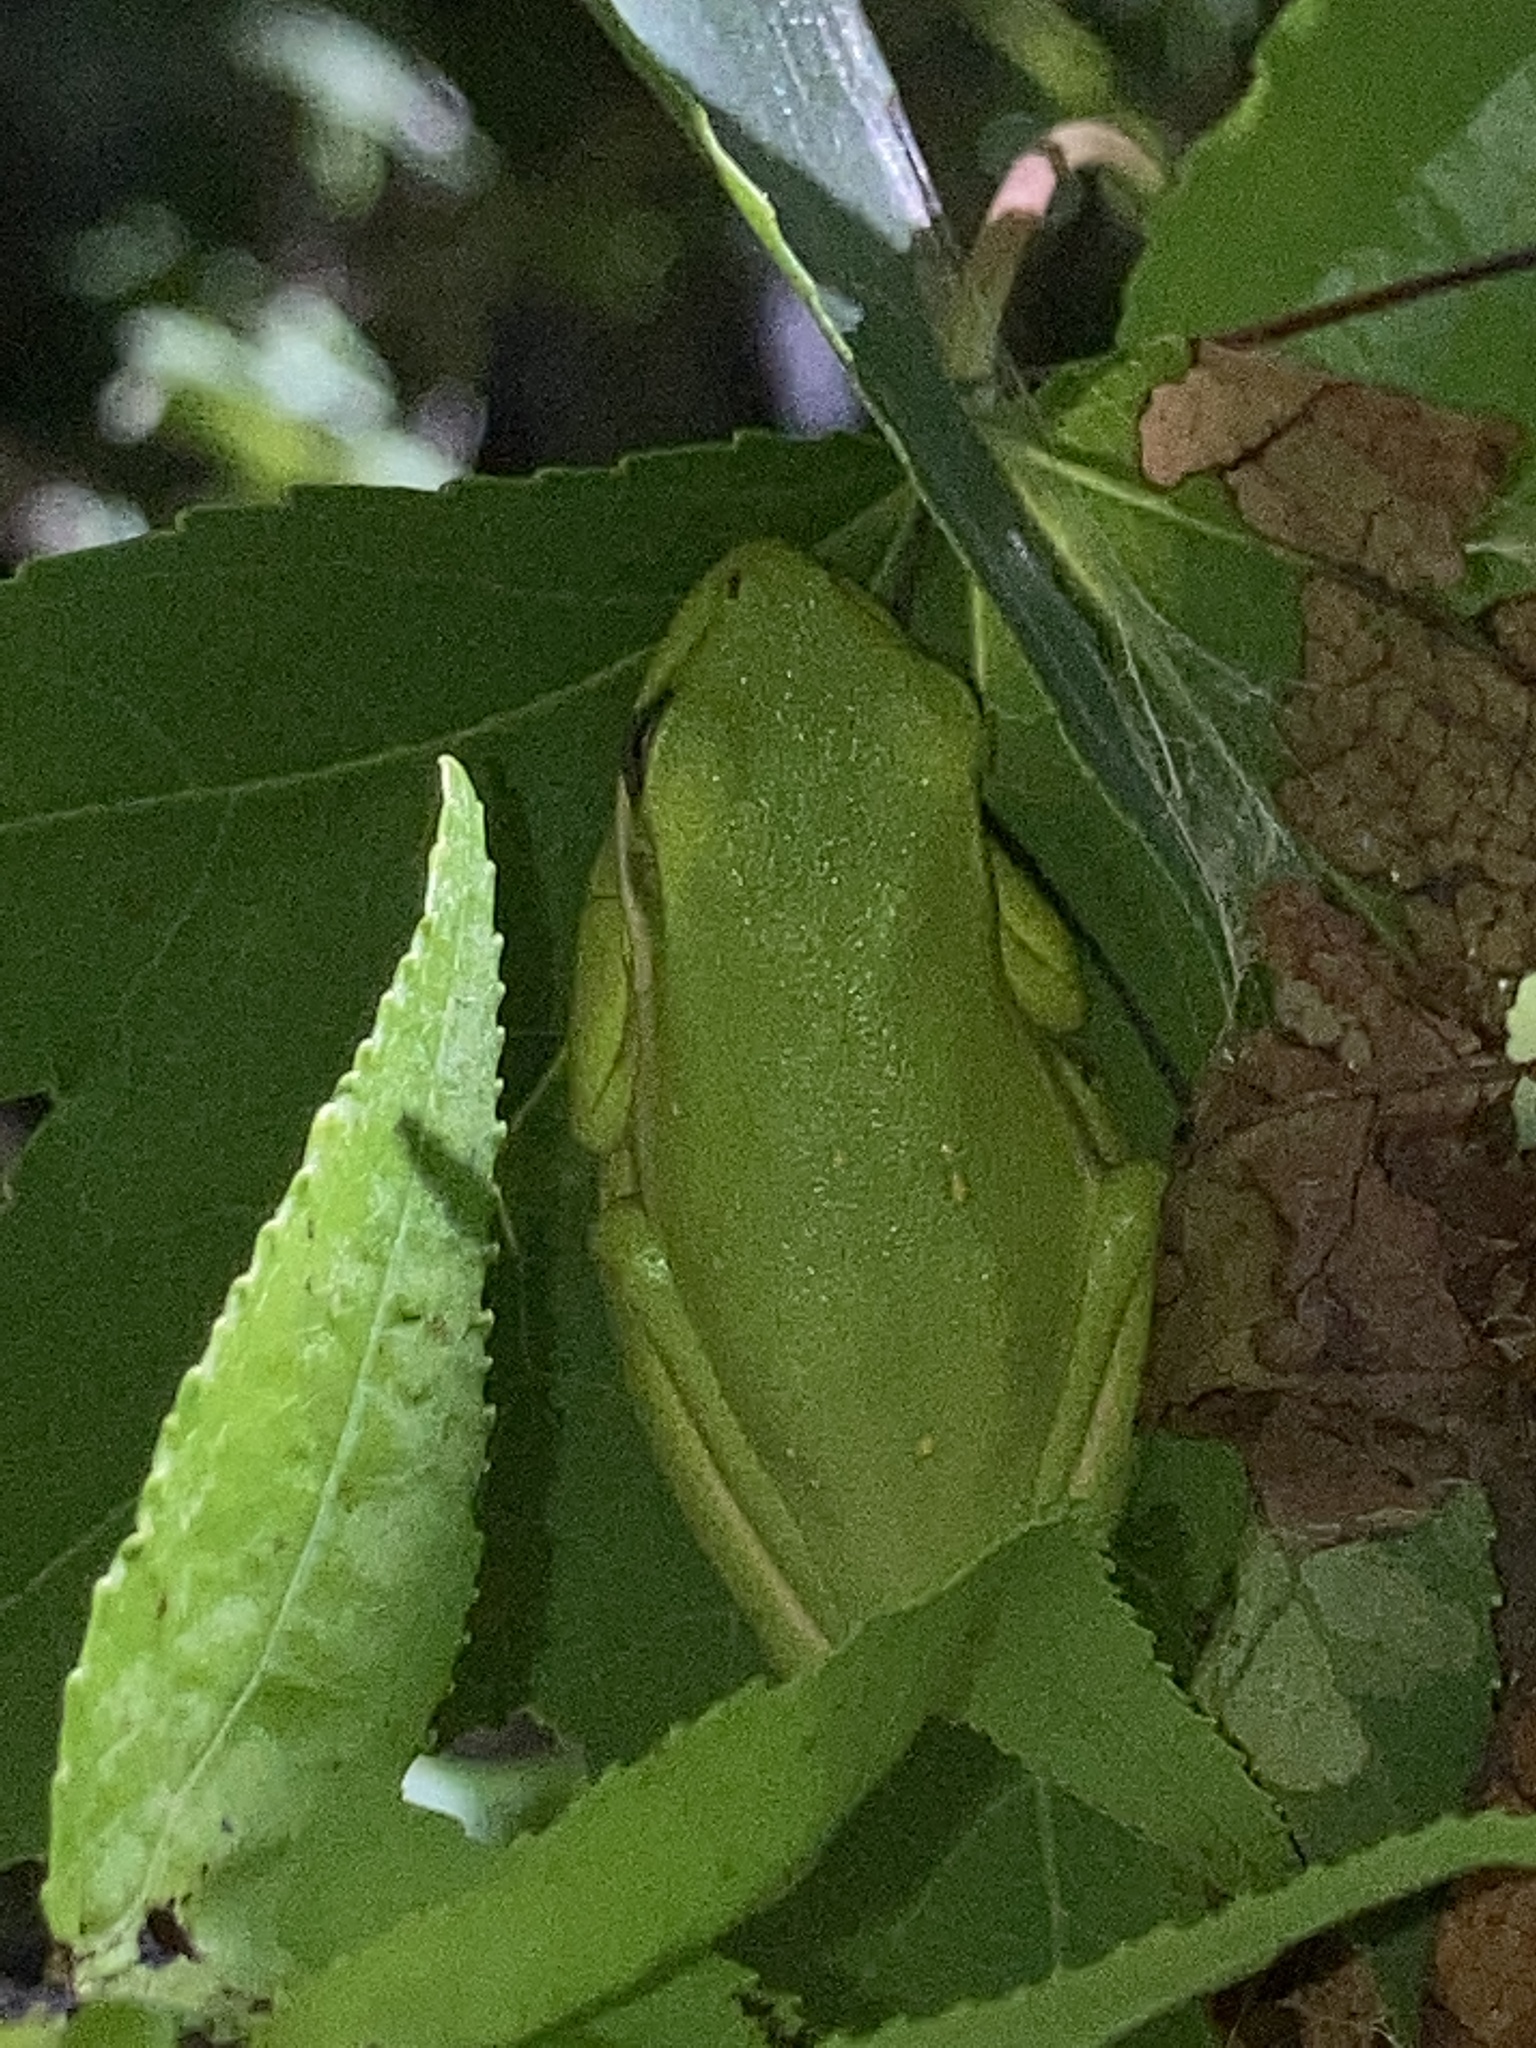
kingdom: Animalia
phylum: Chordata
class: Amphibia
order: Anura
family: Hylidae
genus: Dryophytes
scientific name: Dryophytes cinereus
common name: Green treefrog
